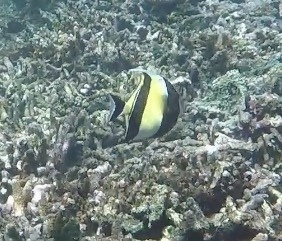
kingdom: Animalia
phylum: Chordata
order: Perciformes
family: Zanclidae
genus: Zanclus
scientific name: Zanclus cornutus
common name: Moorish idol
